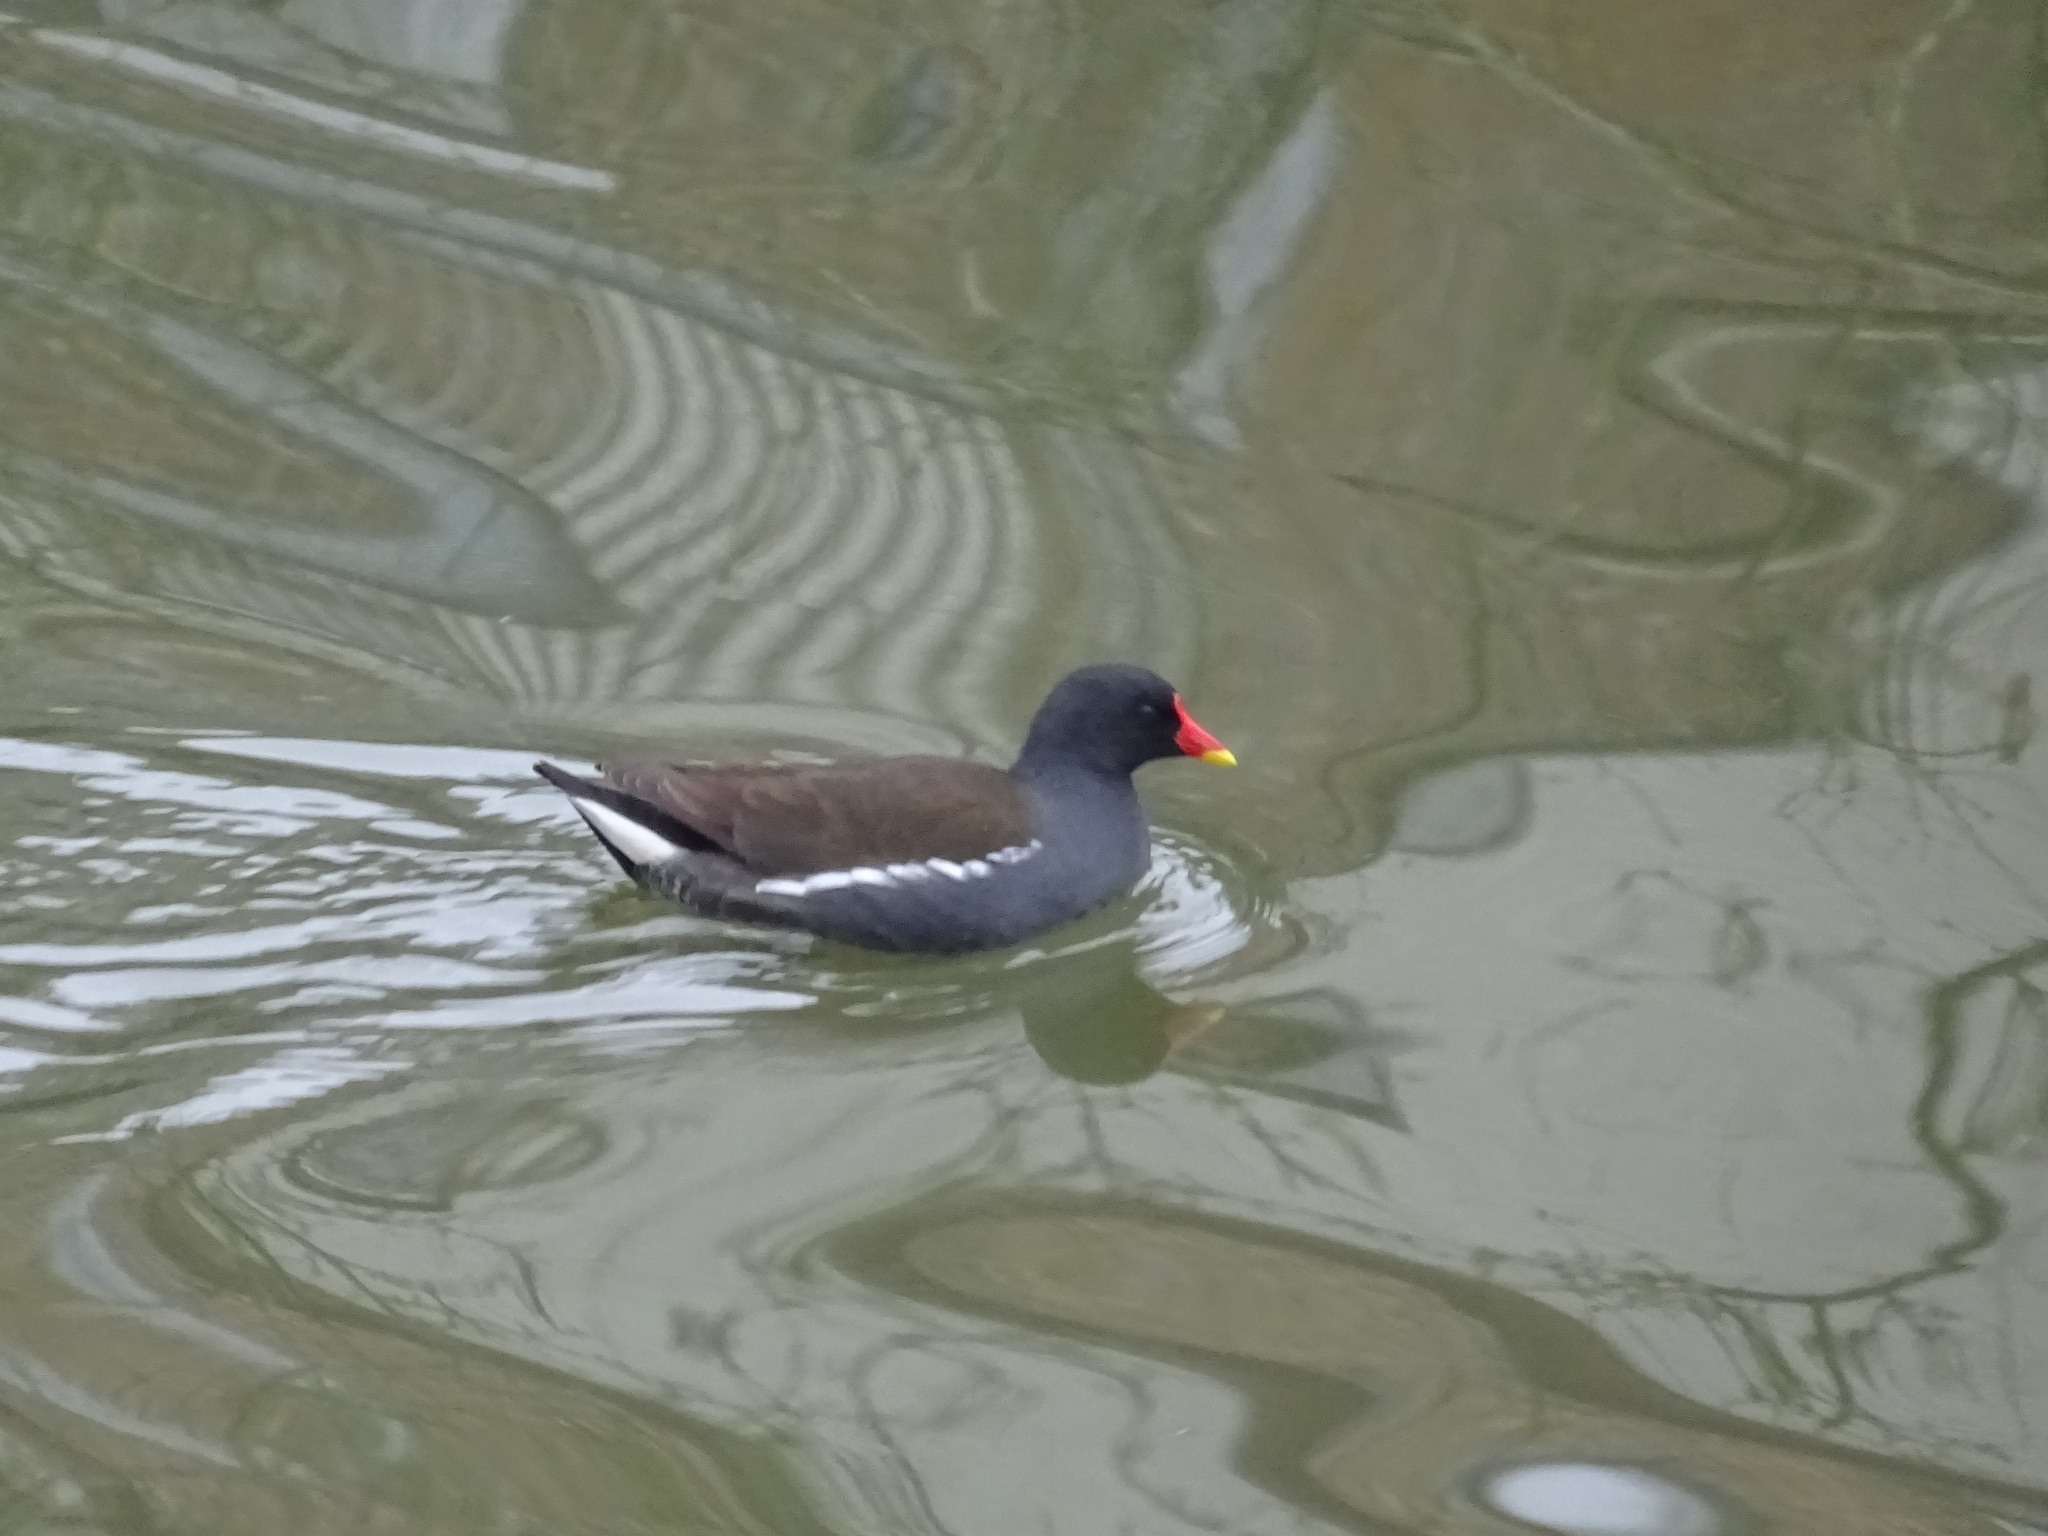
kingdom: Animalia
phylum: Chordata
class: Aves
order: Gruiformes
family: Rallidae
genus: Gallinula
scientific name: Gallinula chloropus
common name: Common moorhen
